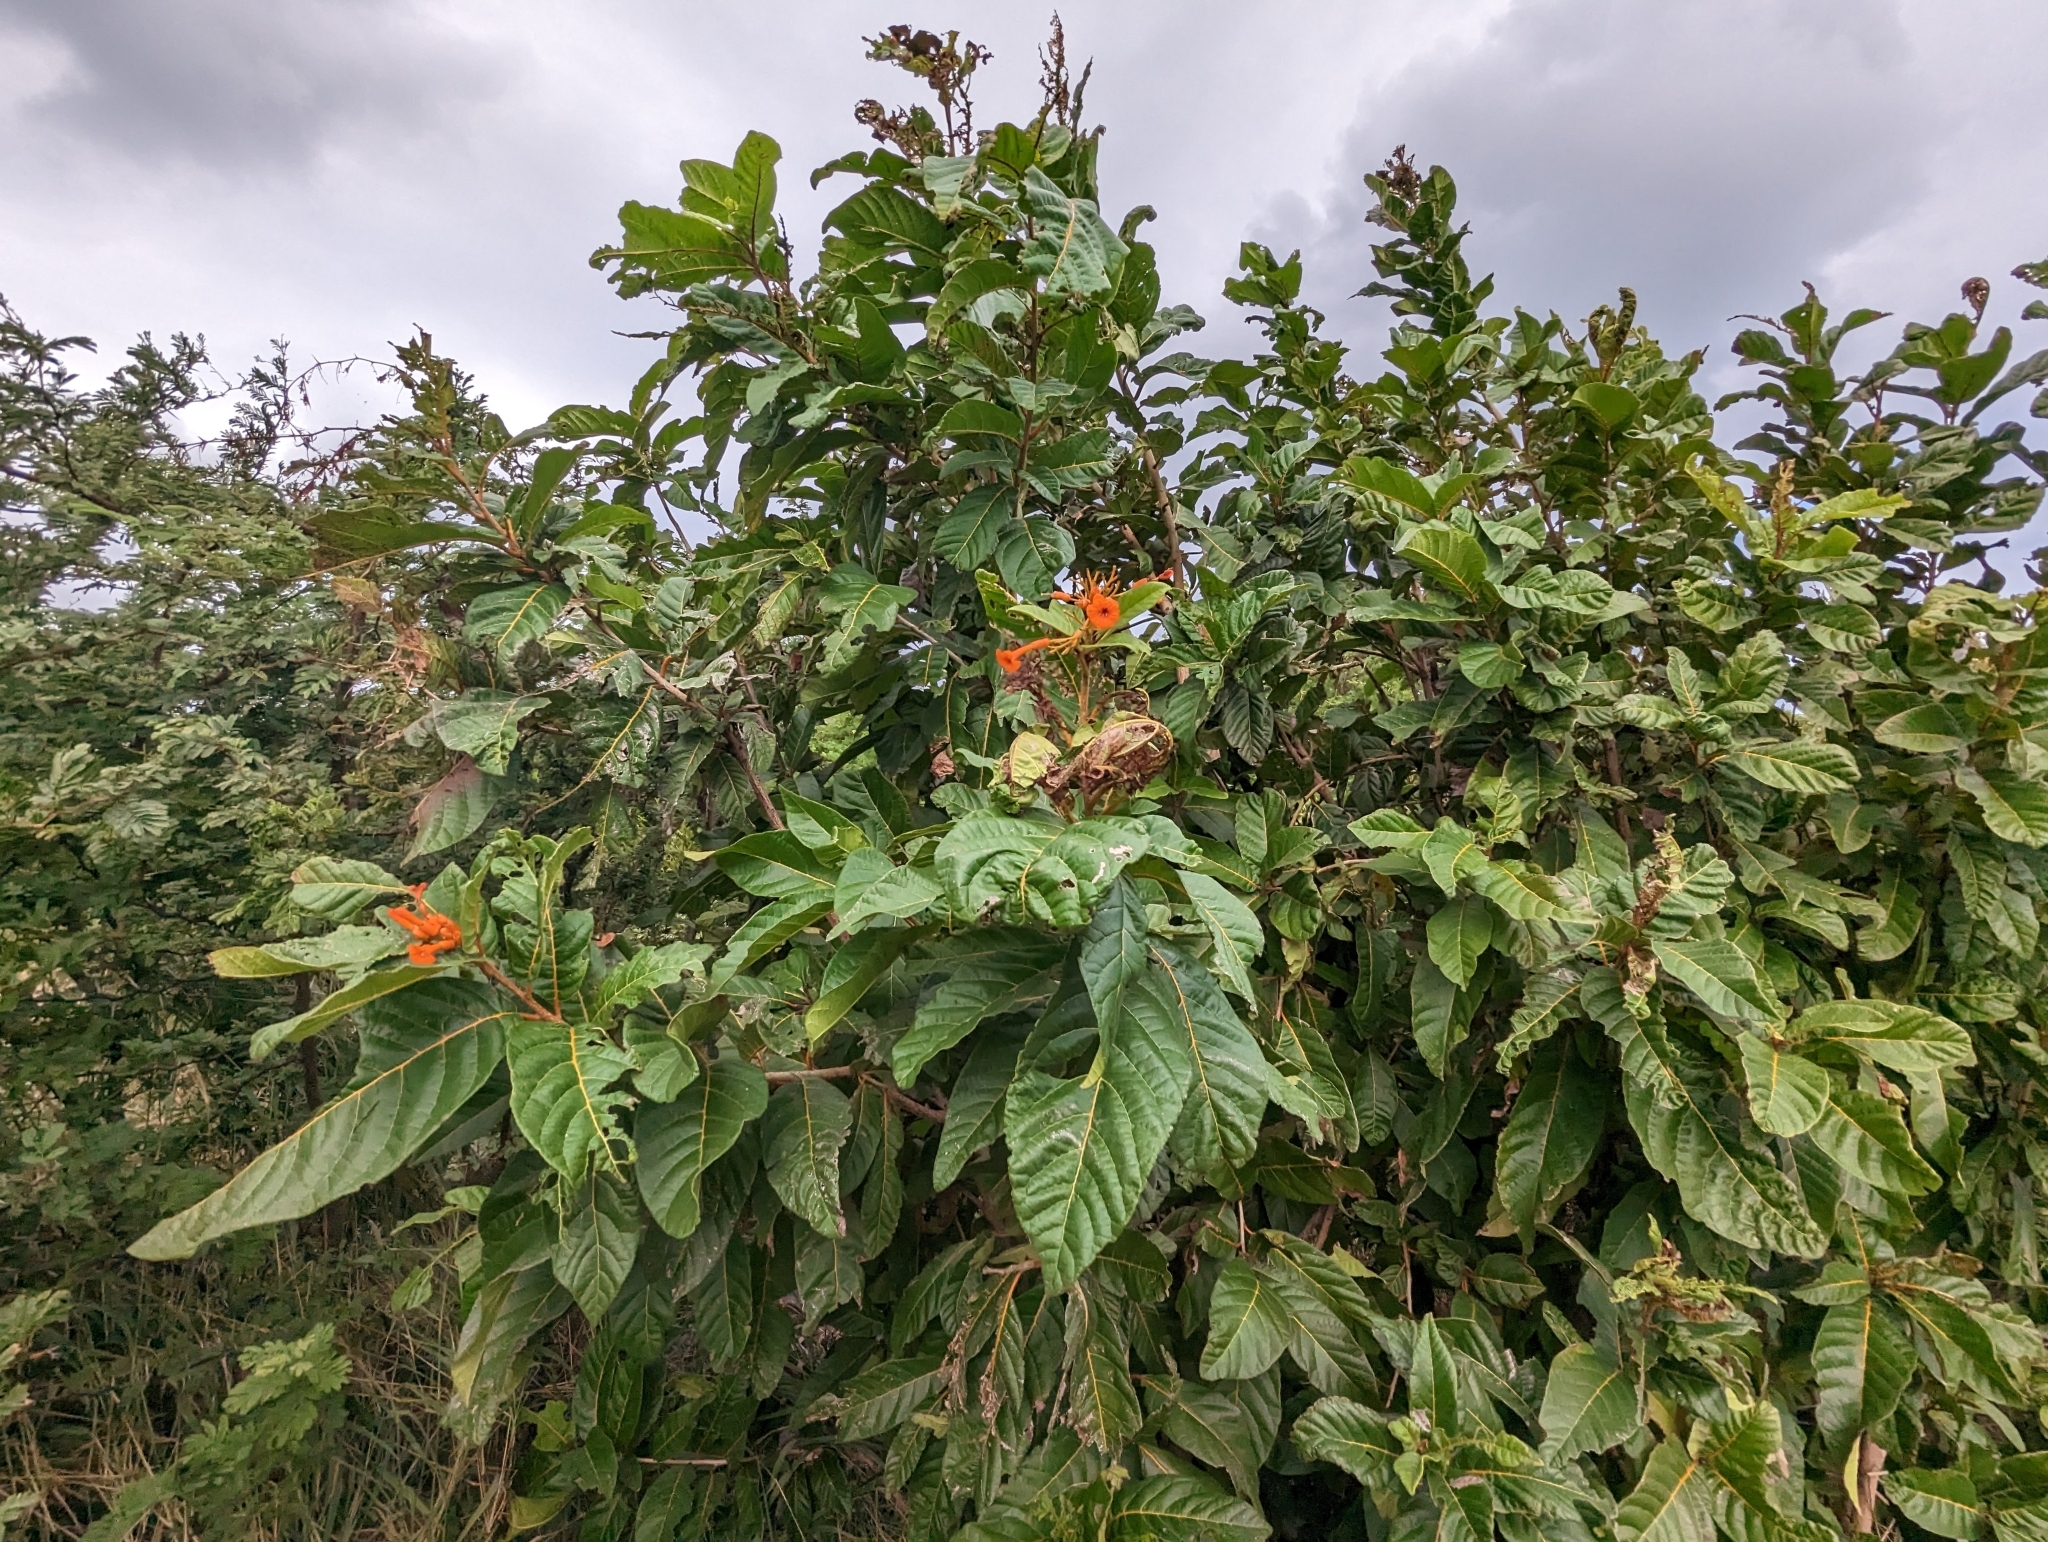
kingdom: Plantae
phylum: Tracheophyta
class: Magnoliopsida
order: Boraginales
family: Cordiaceae
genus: Cordia
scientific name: Cordia rickseckeri
